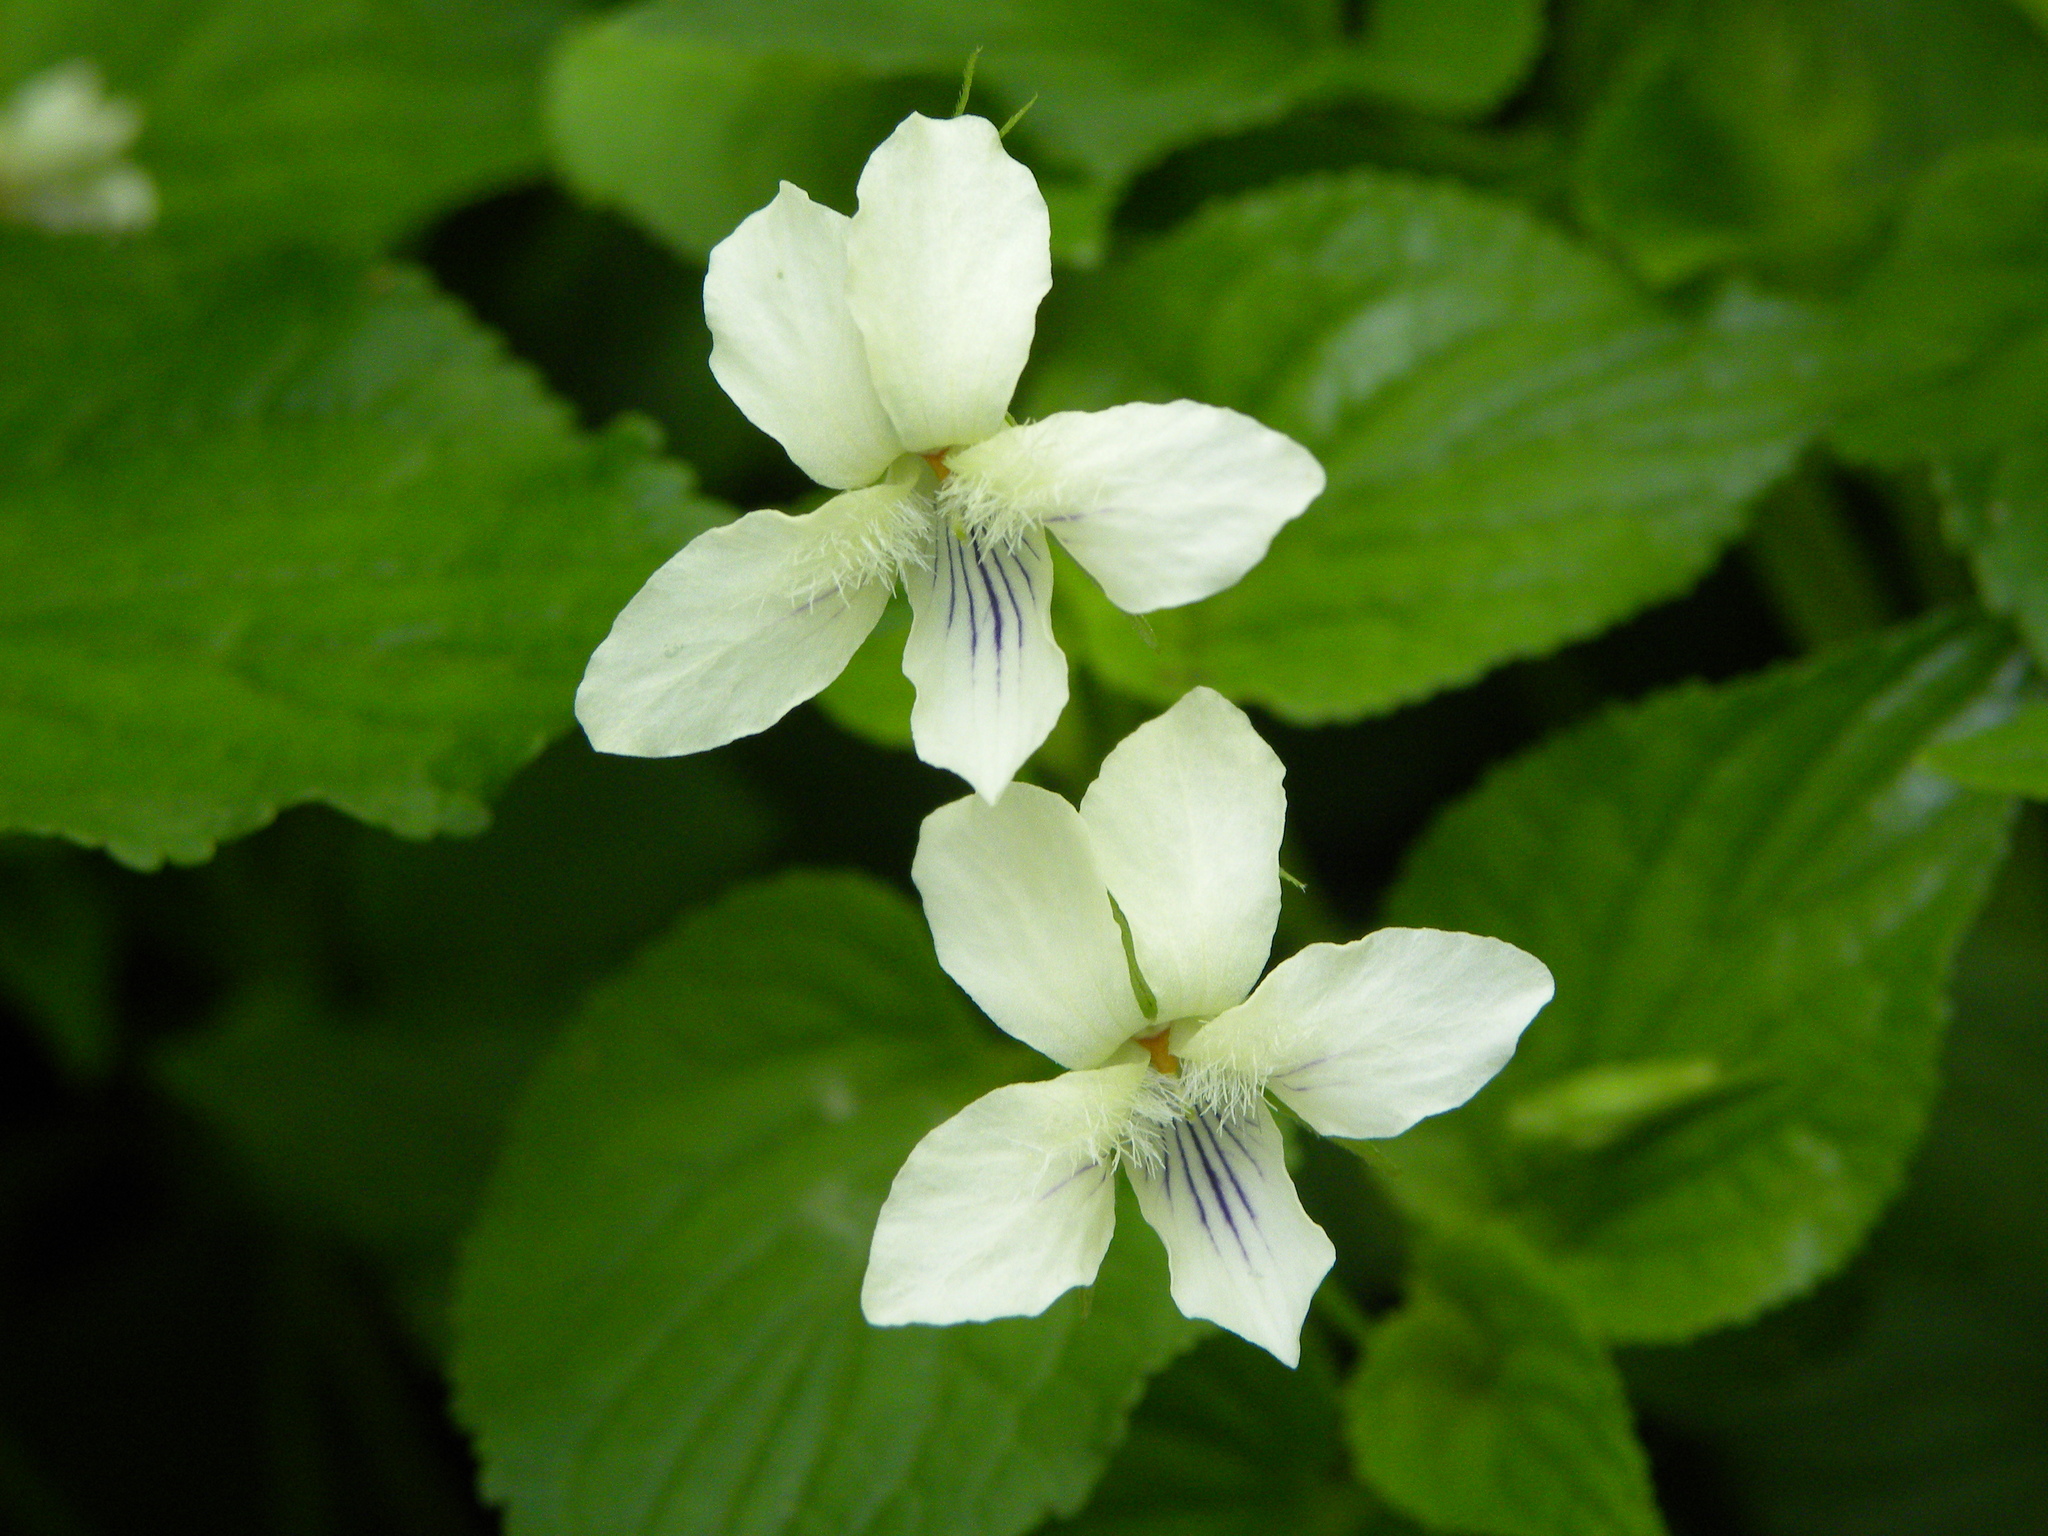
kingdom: Plantae
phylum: Tracheophyta
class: Magnoliopsida
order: Malpighiales
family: Violaceae
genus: Viola
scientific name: Viola striata
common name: Cream violet
